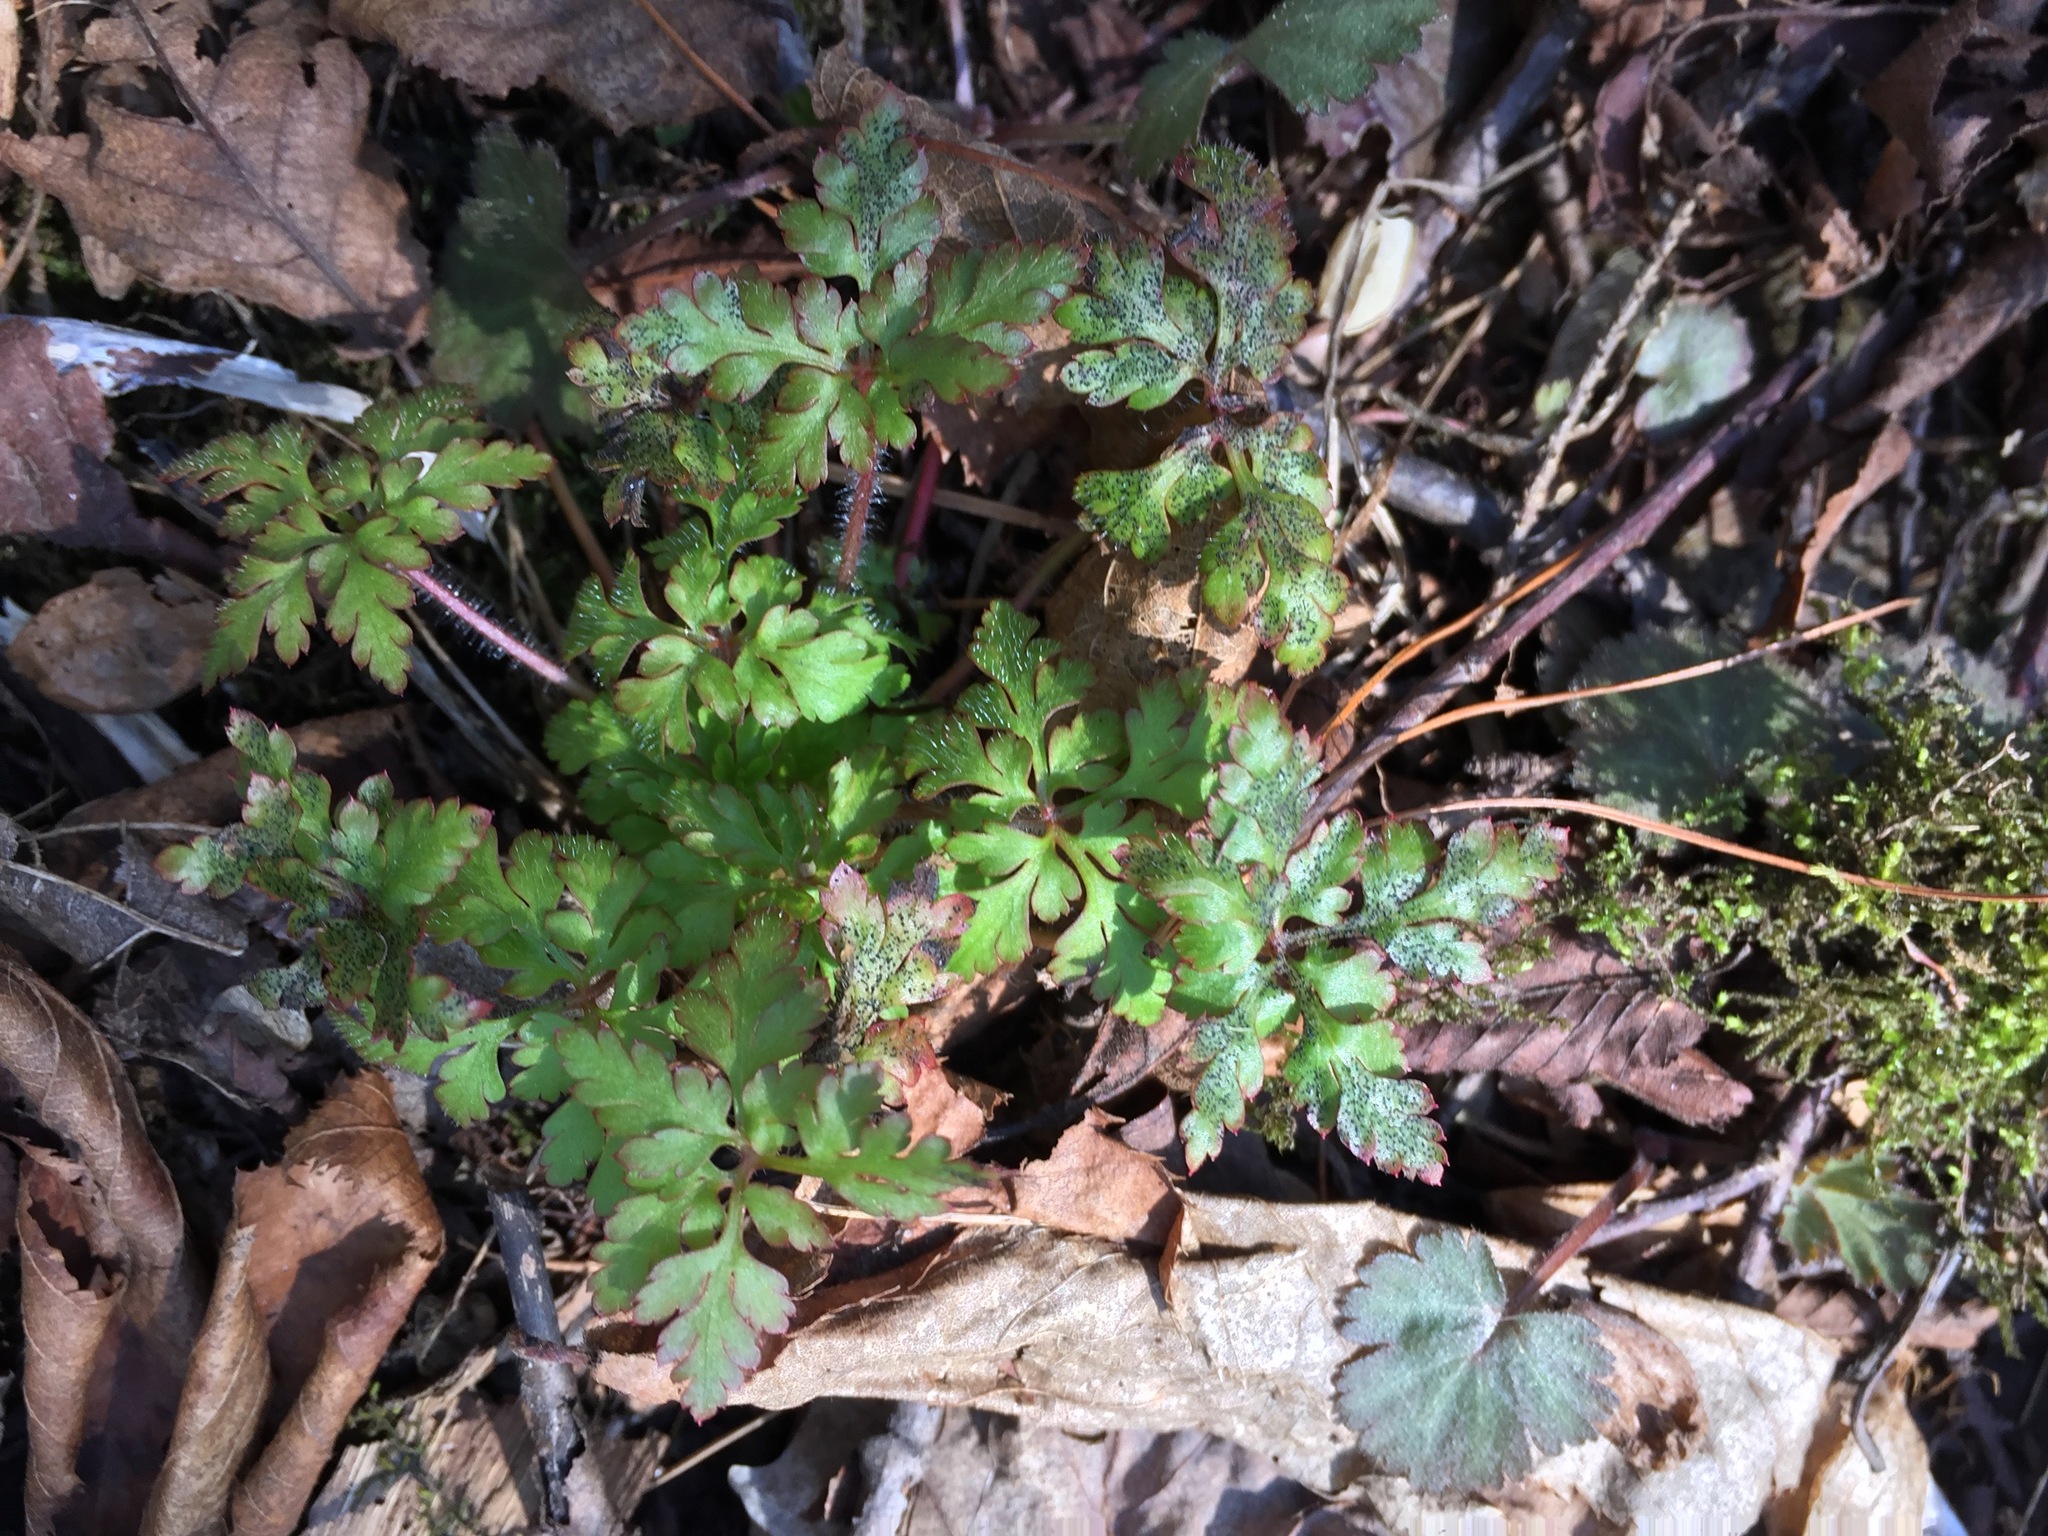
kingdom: Plantae
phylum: Tracheophyta
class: Magnoliopsida
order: Geraniales
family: Geraniaceae
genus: Geranium
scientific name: Geranium robertianum
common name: Herb-robert
